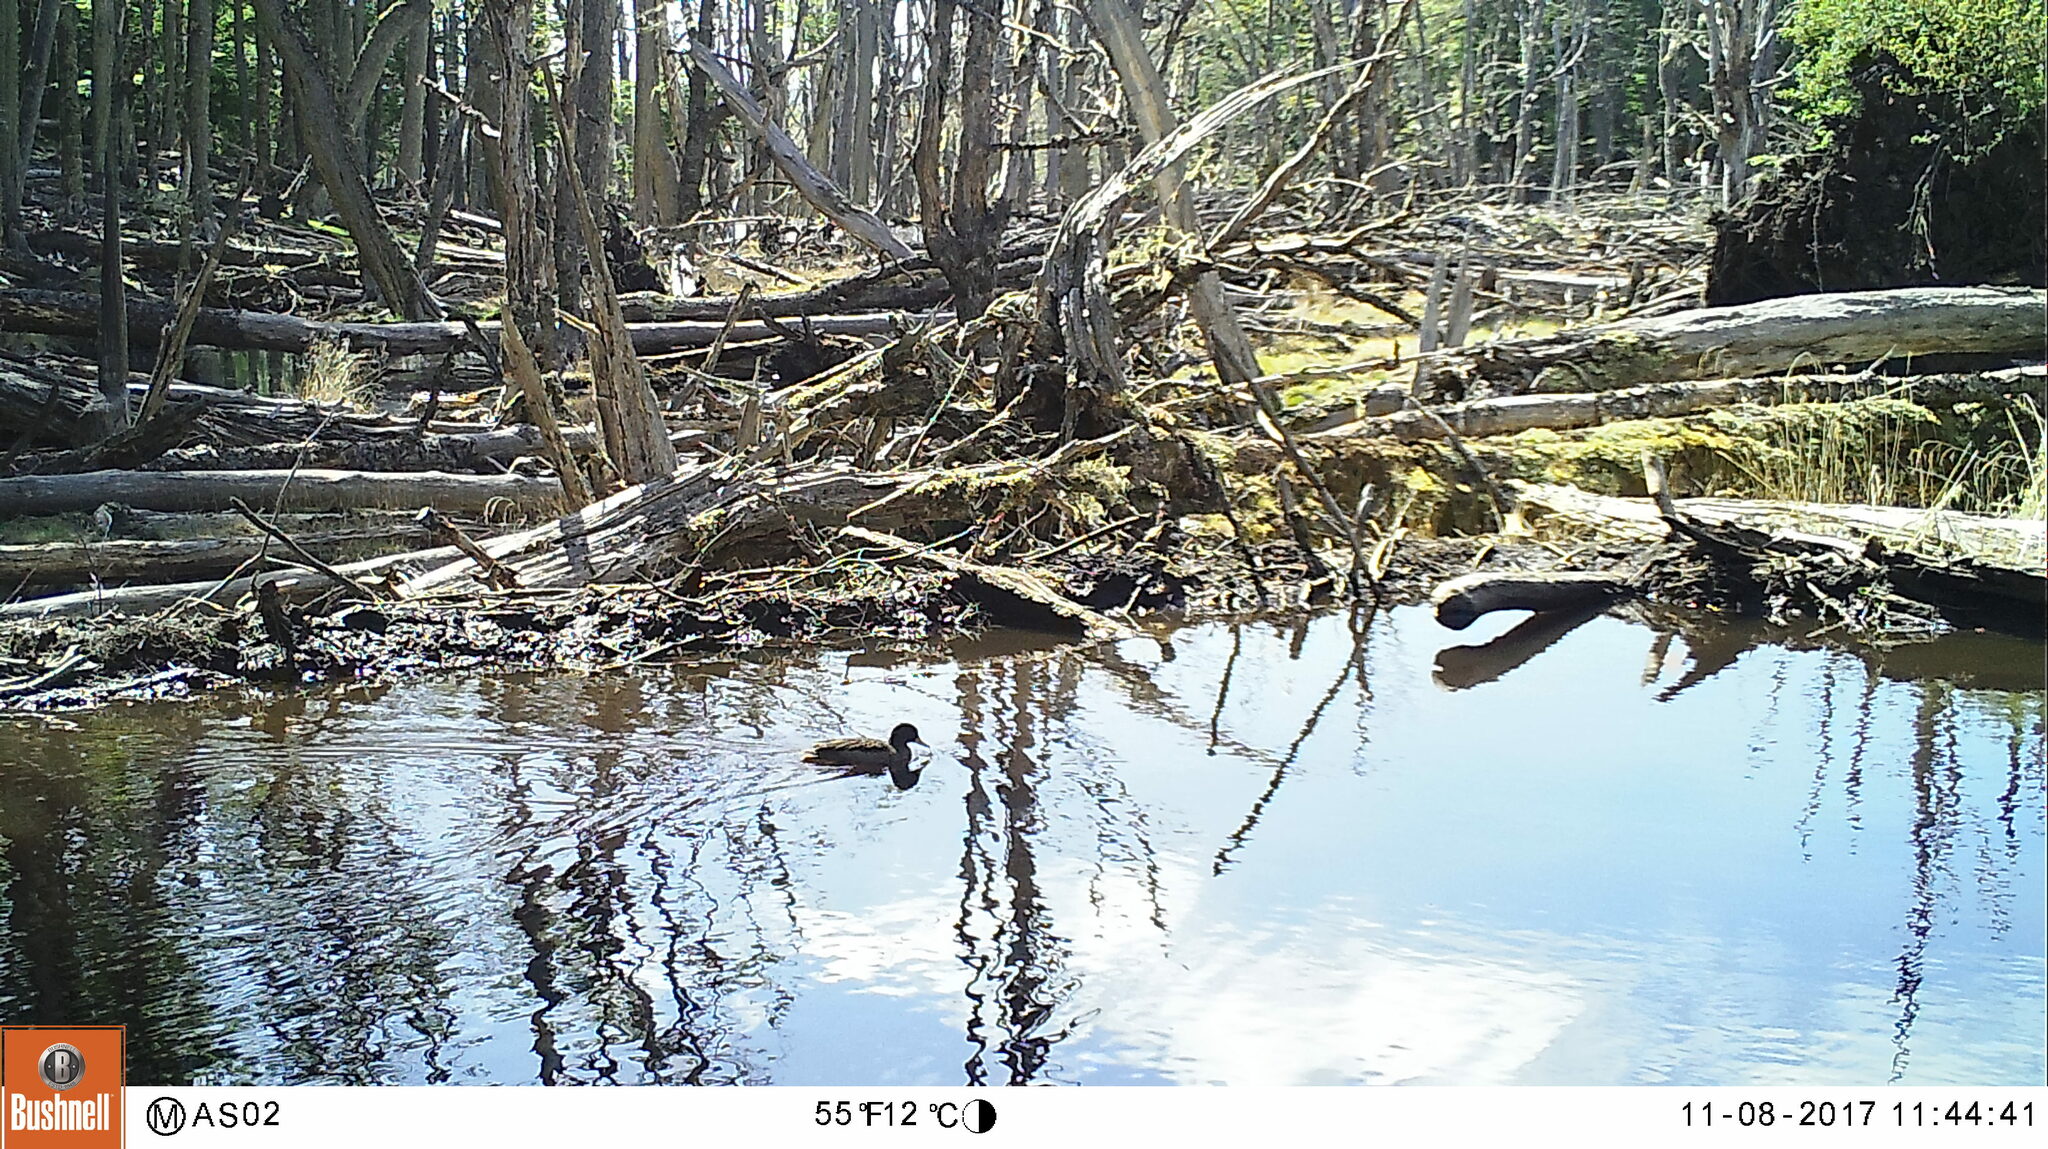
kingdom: Animalia
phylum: Chordata
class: Aves
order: Anseriformes
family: Anatidae
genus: Anas
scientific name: Anas flavirostris
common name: Yellow-billed teal
